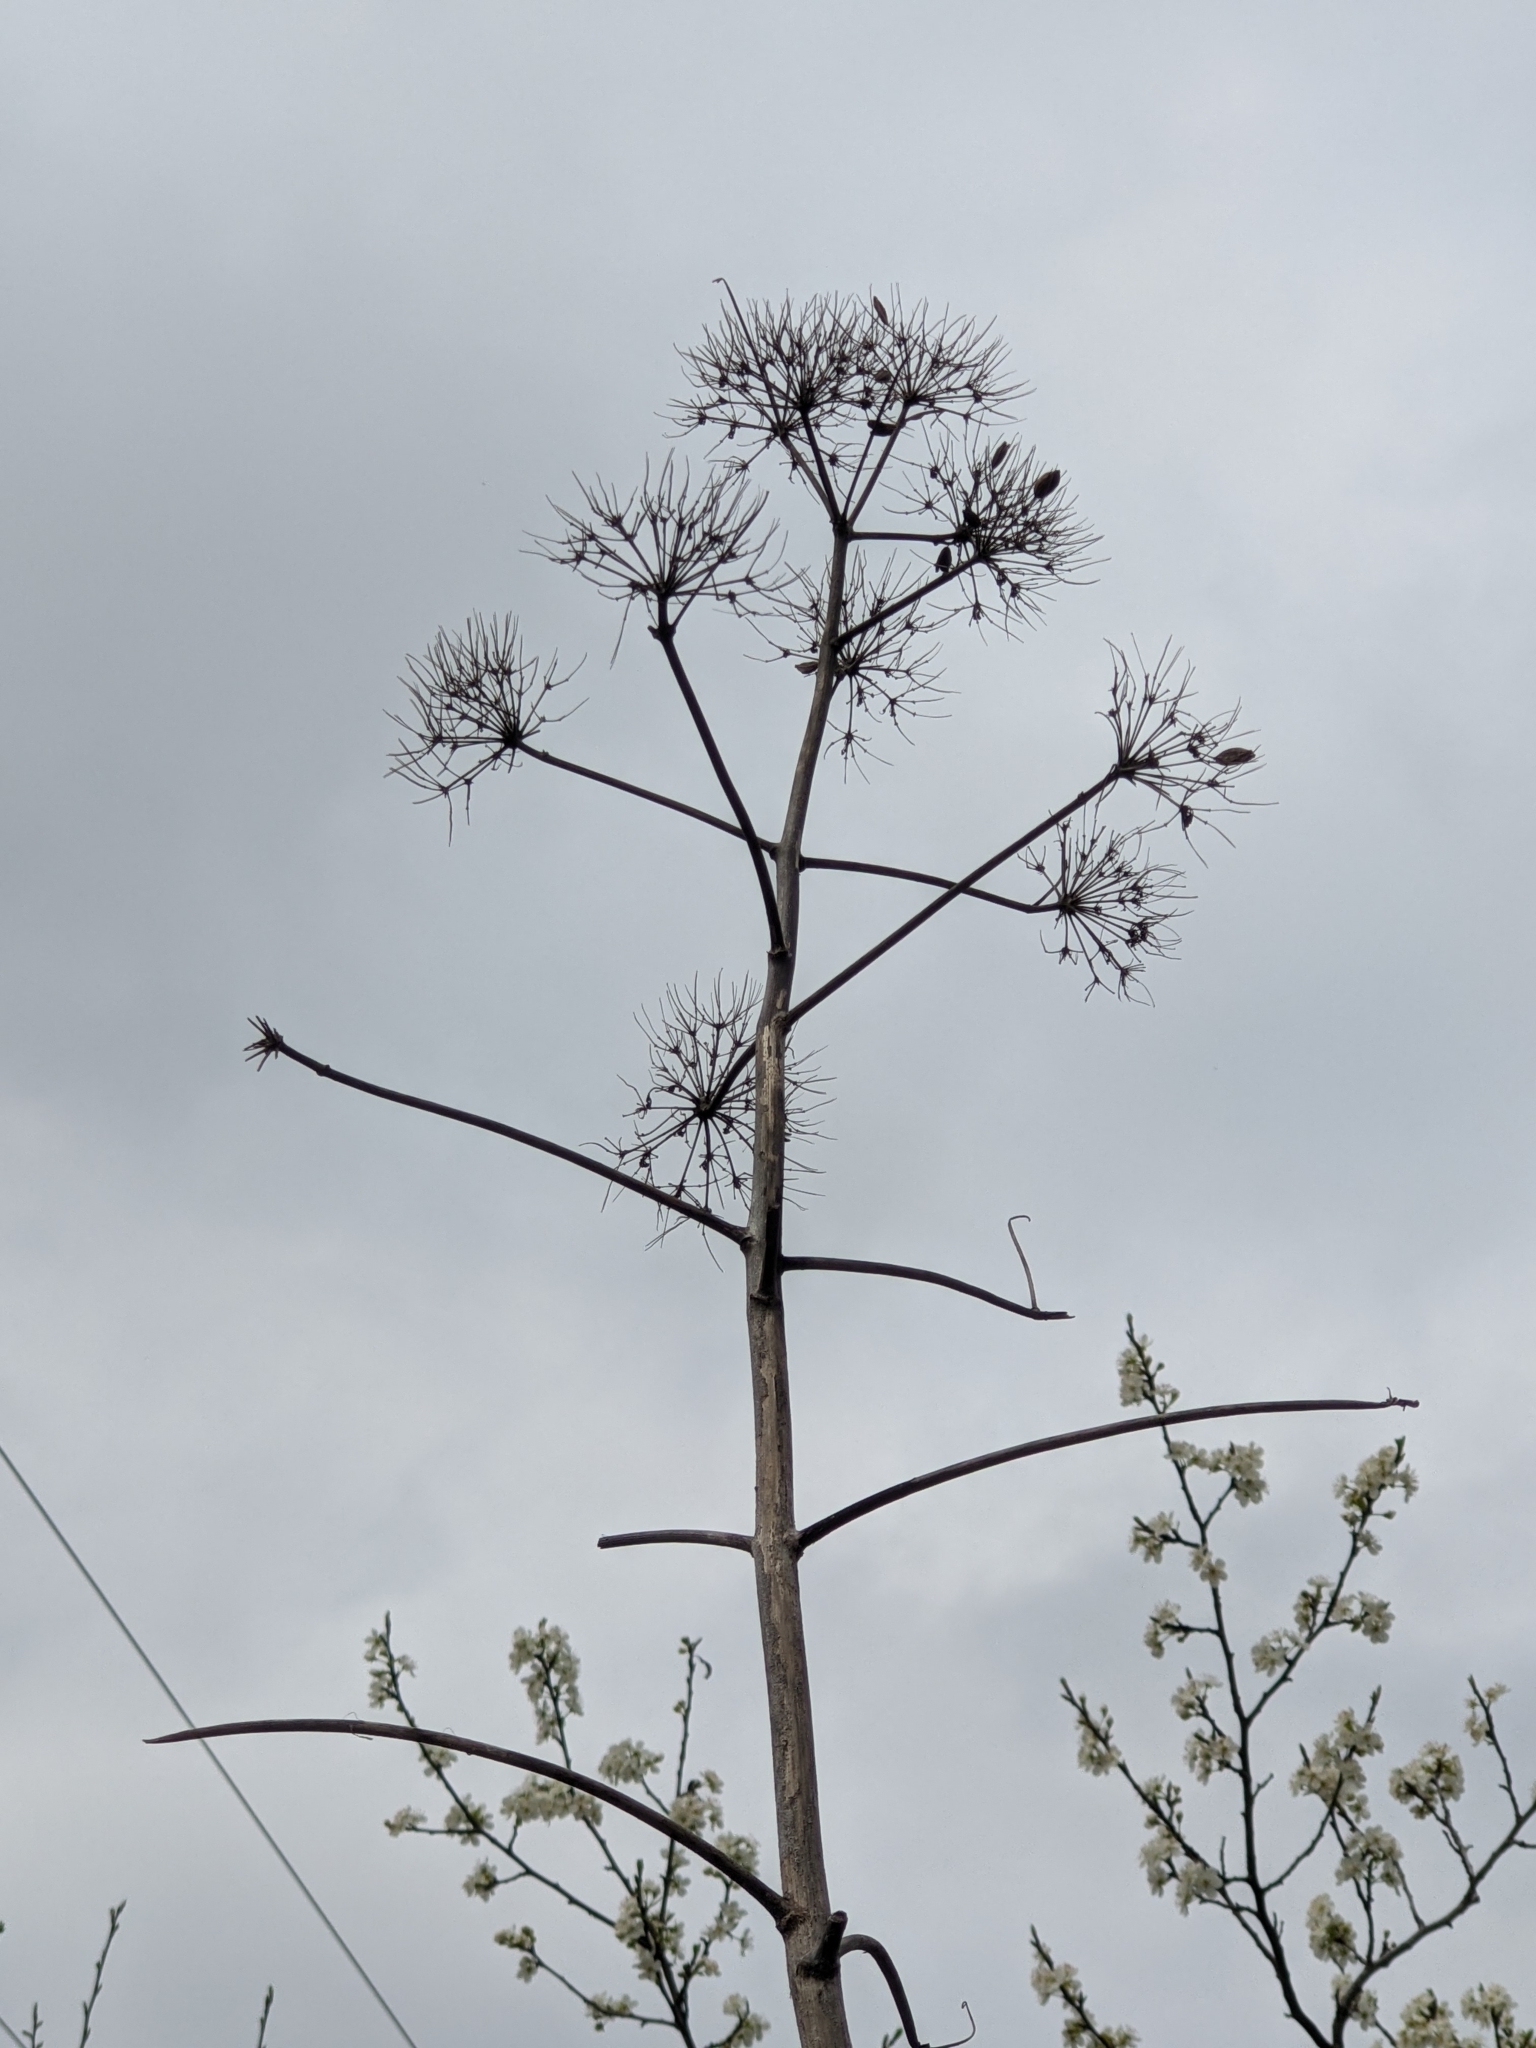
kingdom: Plantae
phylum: Tracheophyta
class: Magnoliopsida
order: Apiales
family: Apiaceae
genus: Ferula
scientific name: Ferula glauca
